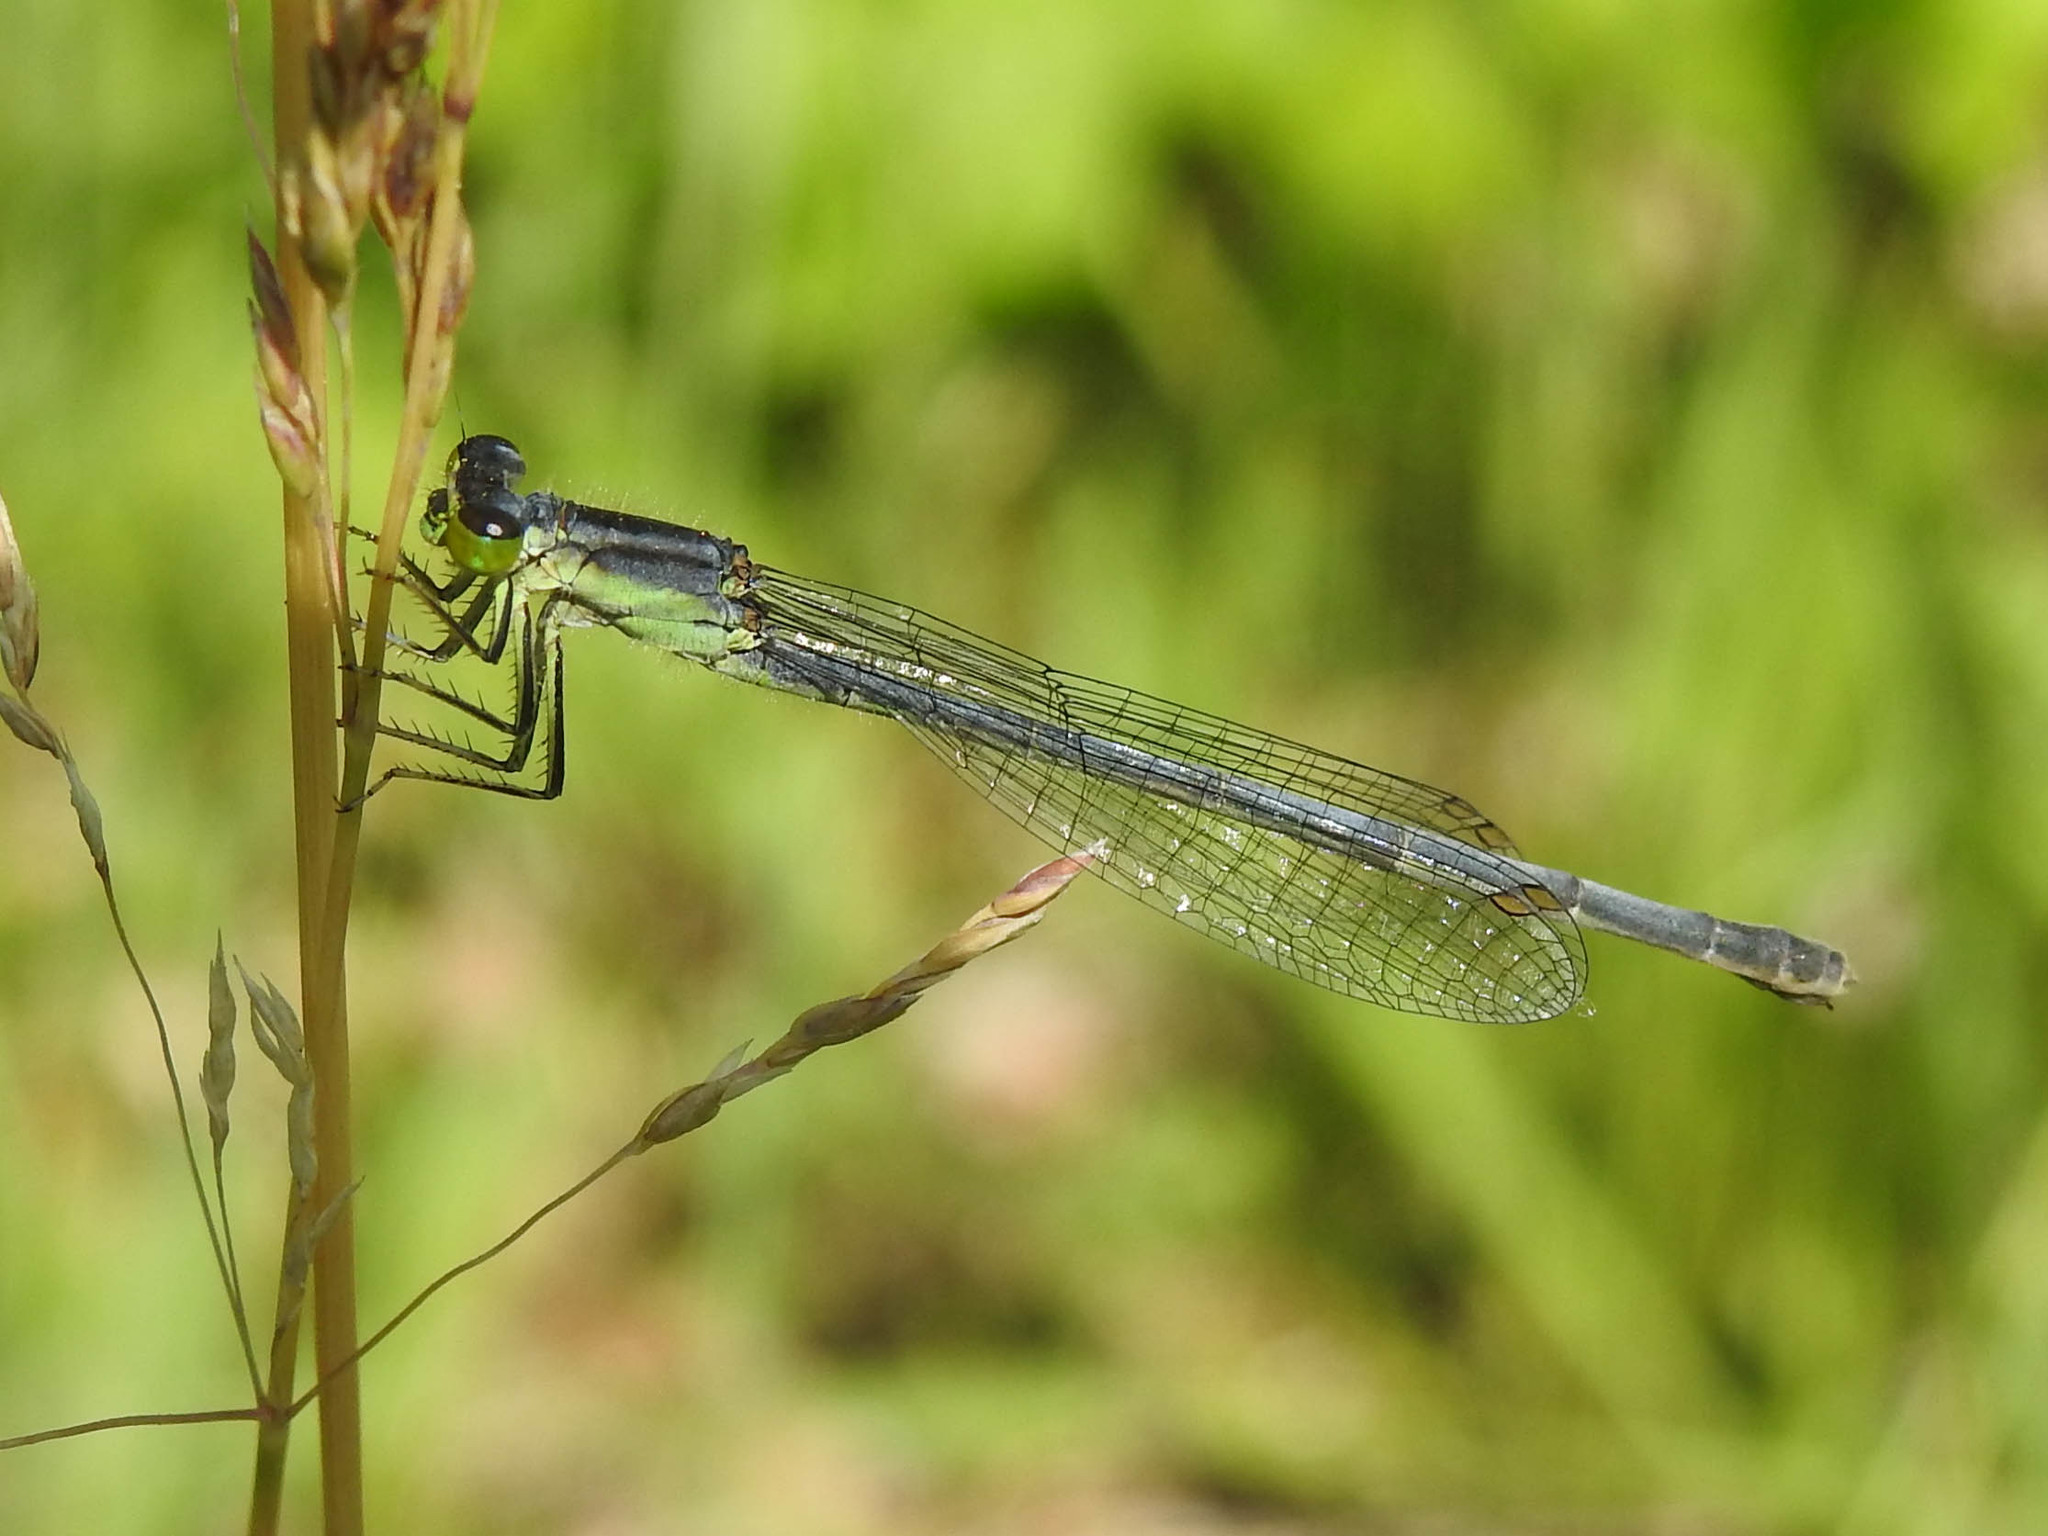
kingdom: Animalia
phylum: Arthropoda
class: Insecta
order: Odonata
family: Coenagrionidae
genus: Ischnura
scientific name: Ischnura verticalis
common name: Eastern forktail
